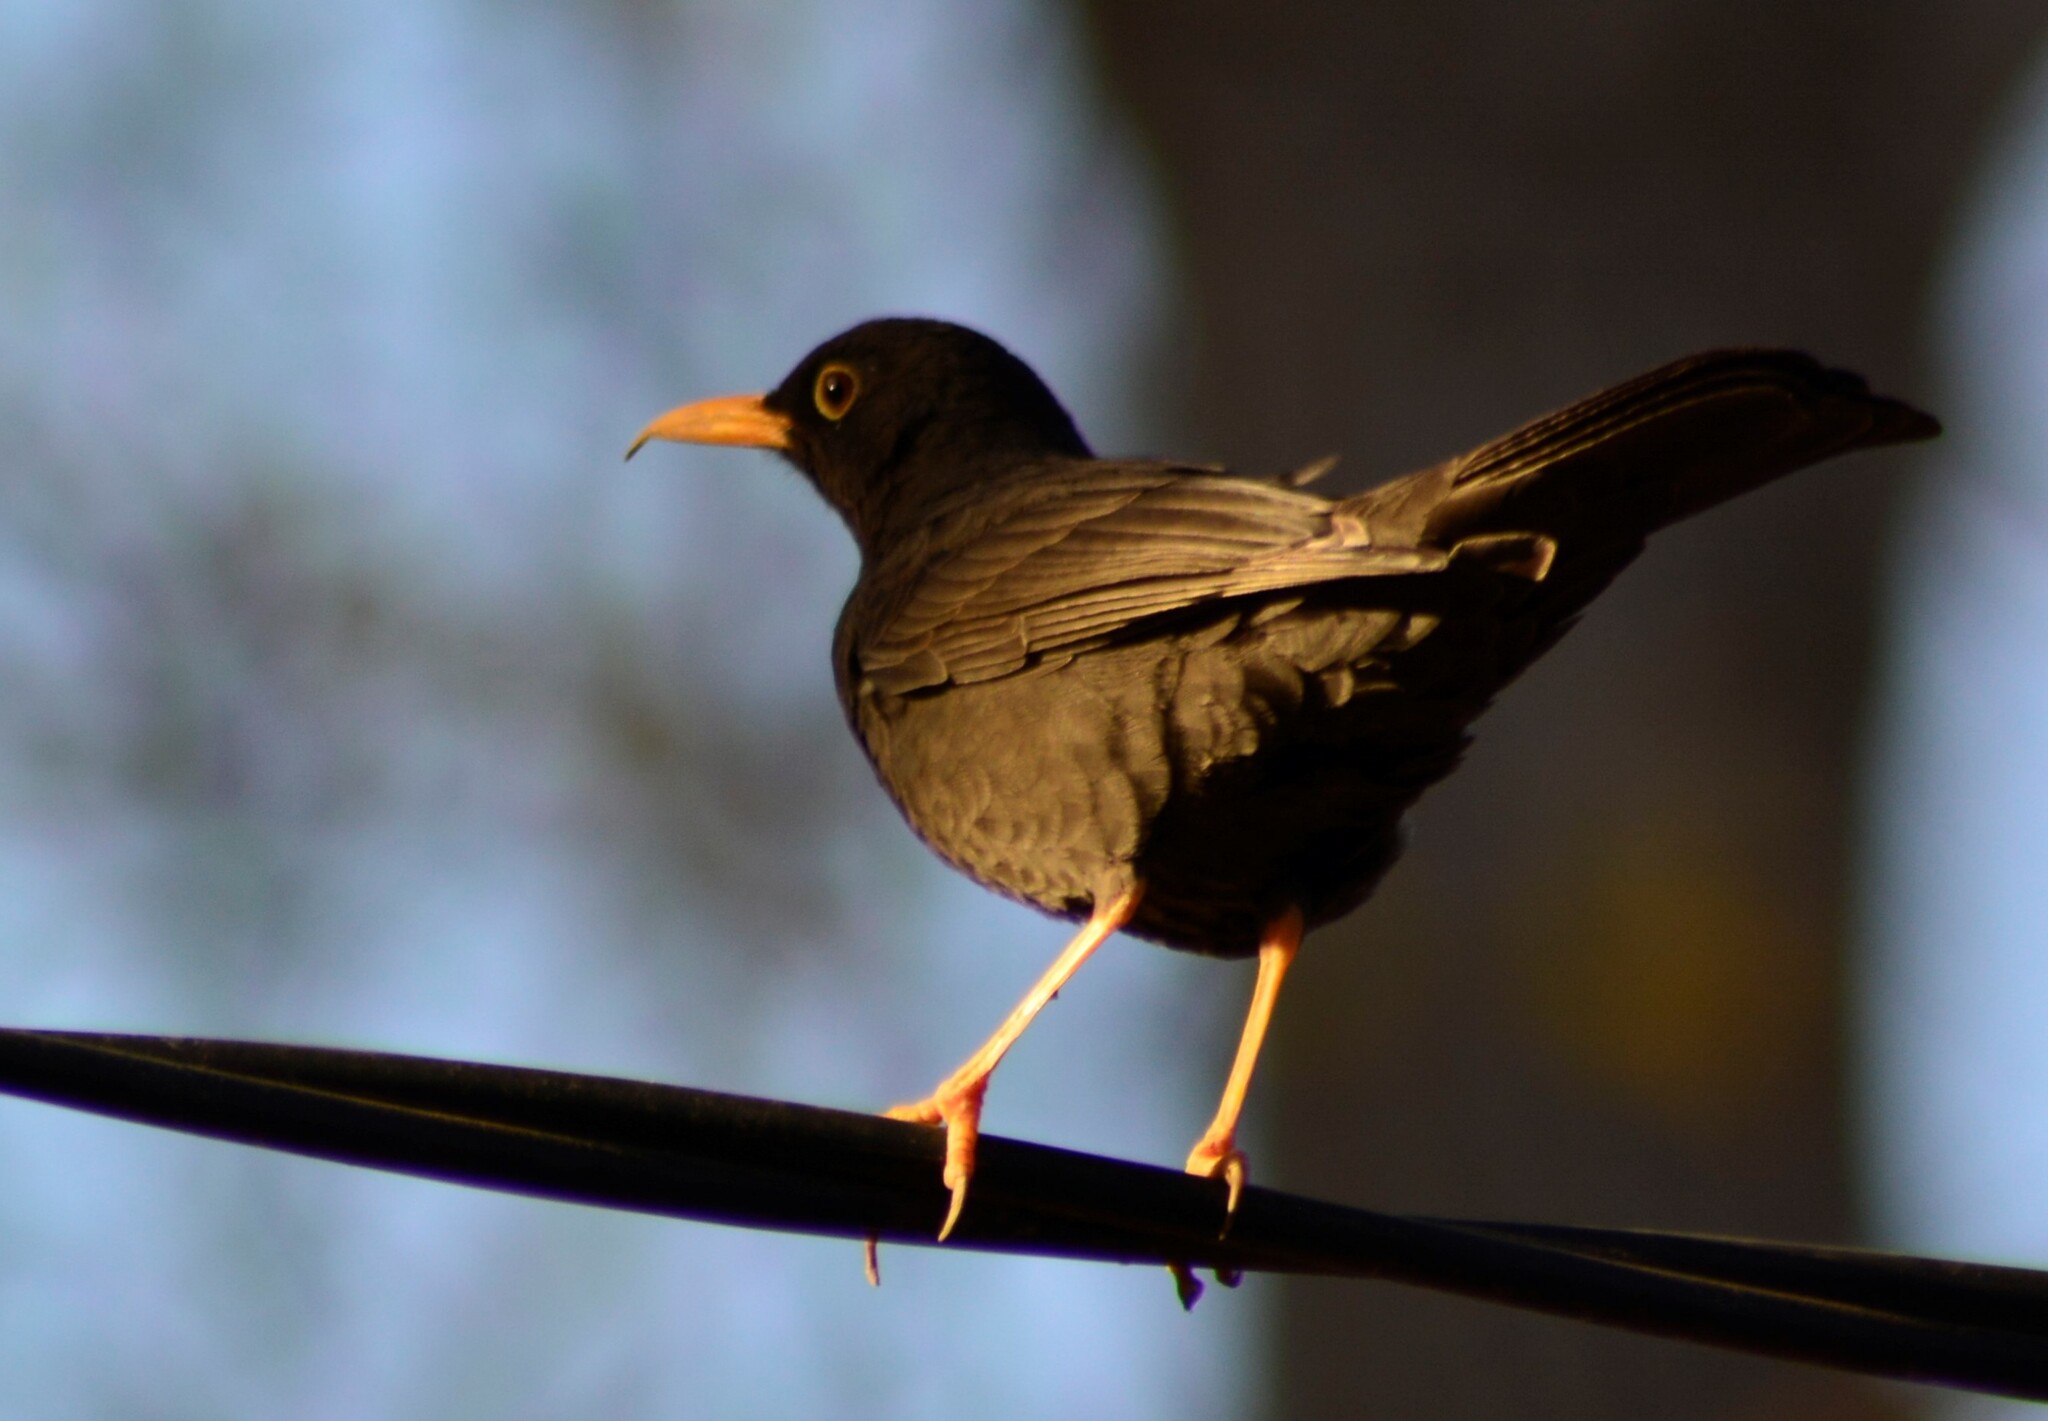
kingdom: Animalia
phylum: Chordata
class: Aves
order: Passeriformes
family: Turdidae
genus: Turdus
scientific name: Turdus chiguanco
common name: Chiguanco thrush
